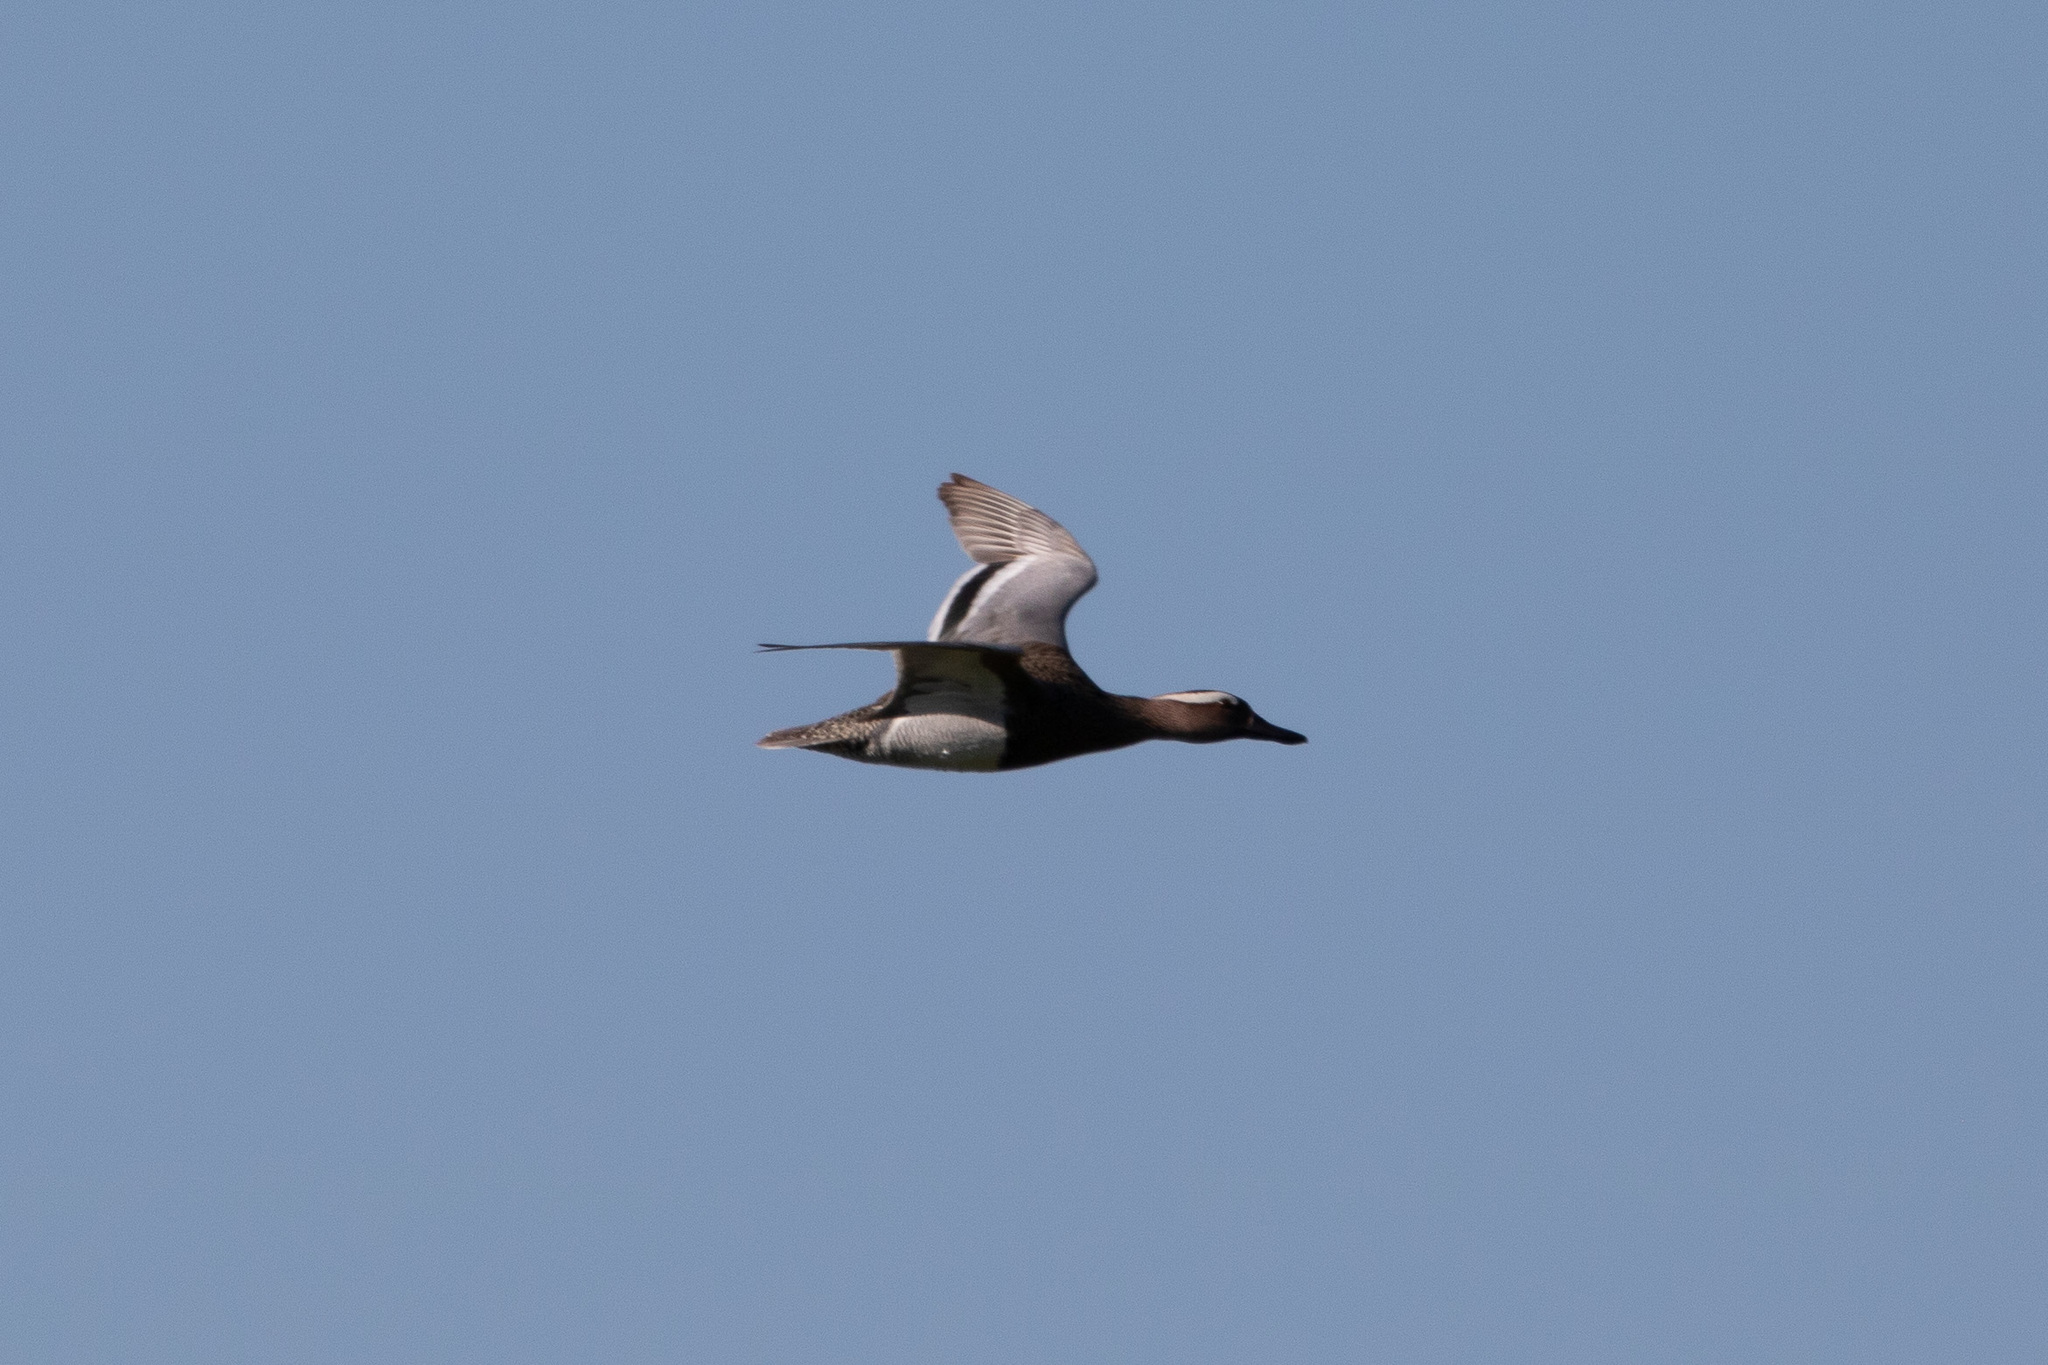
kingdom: Animalia
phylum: Chordata
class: Aves
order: Anseriformes
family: Anatidae
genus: Spatula
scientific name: Spatula querquedula
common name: Garganey
